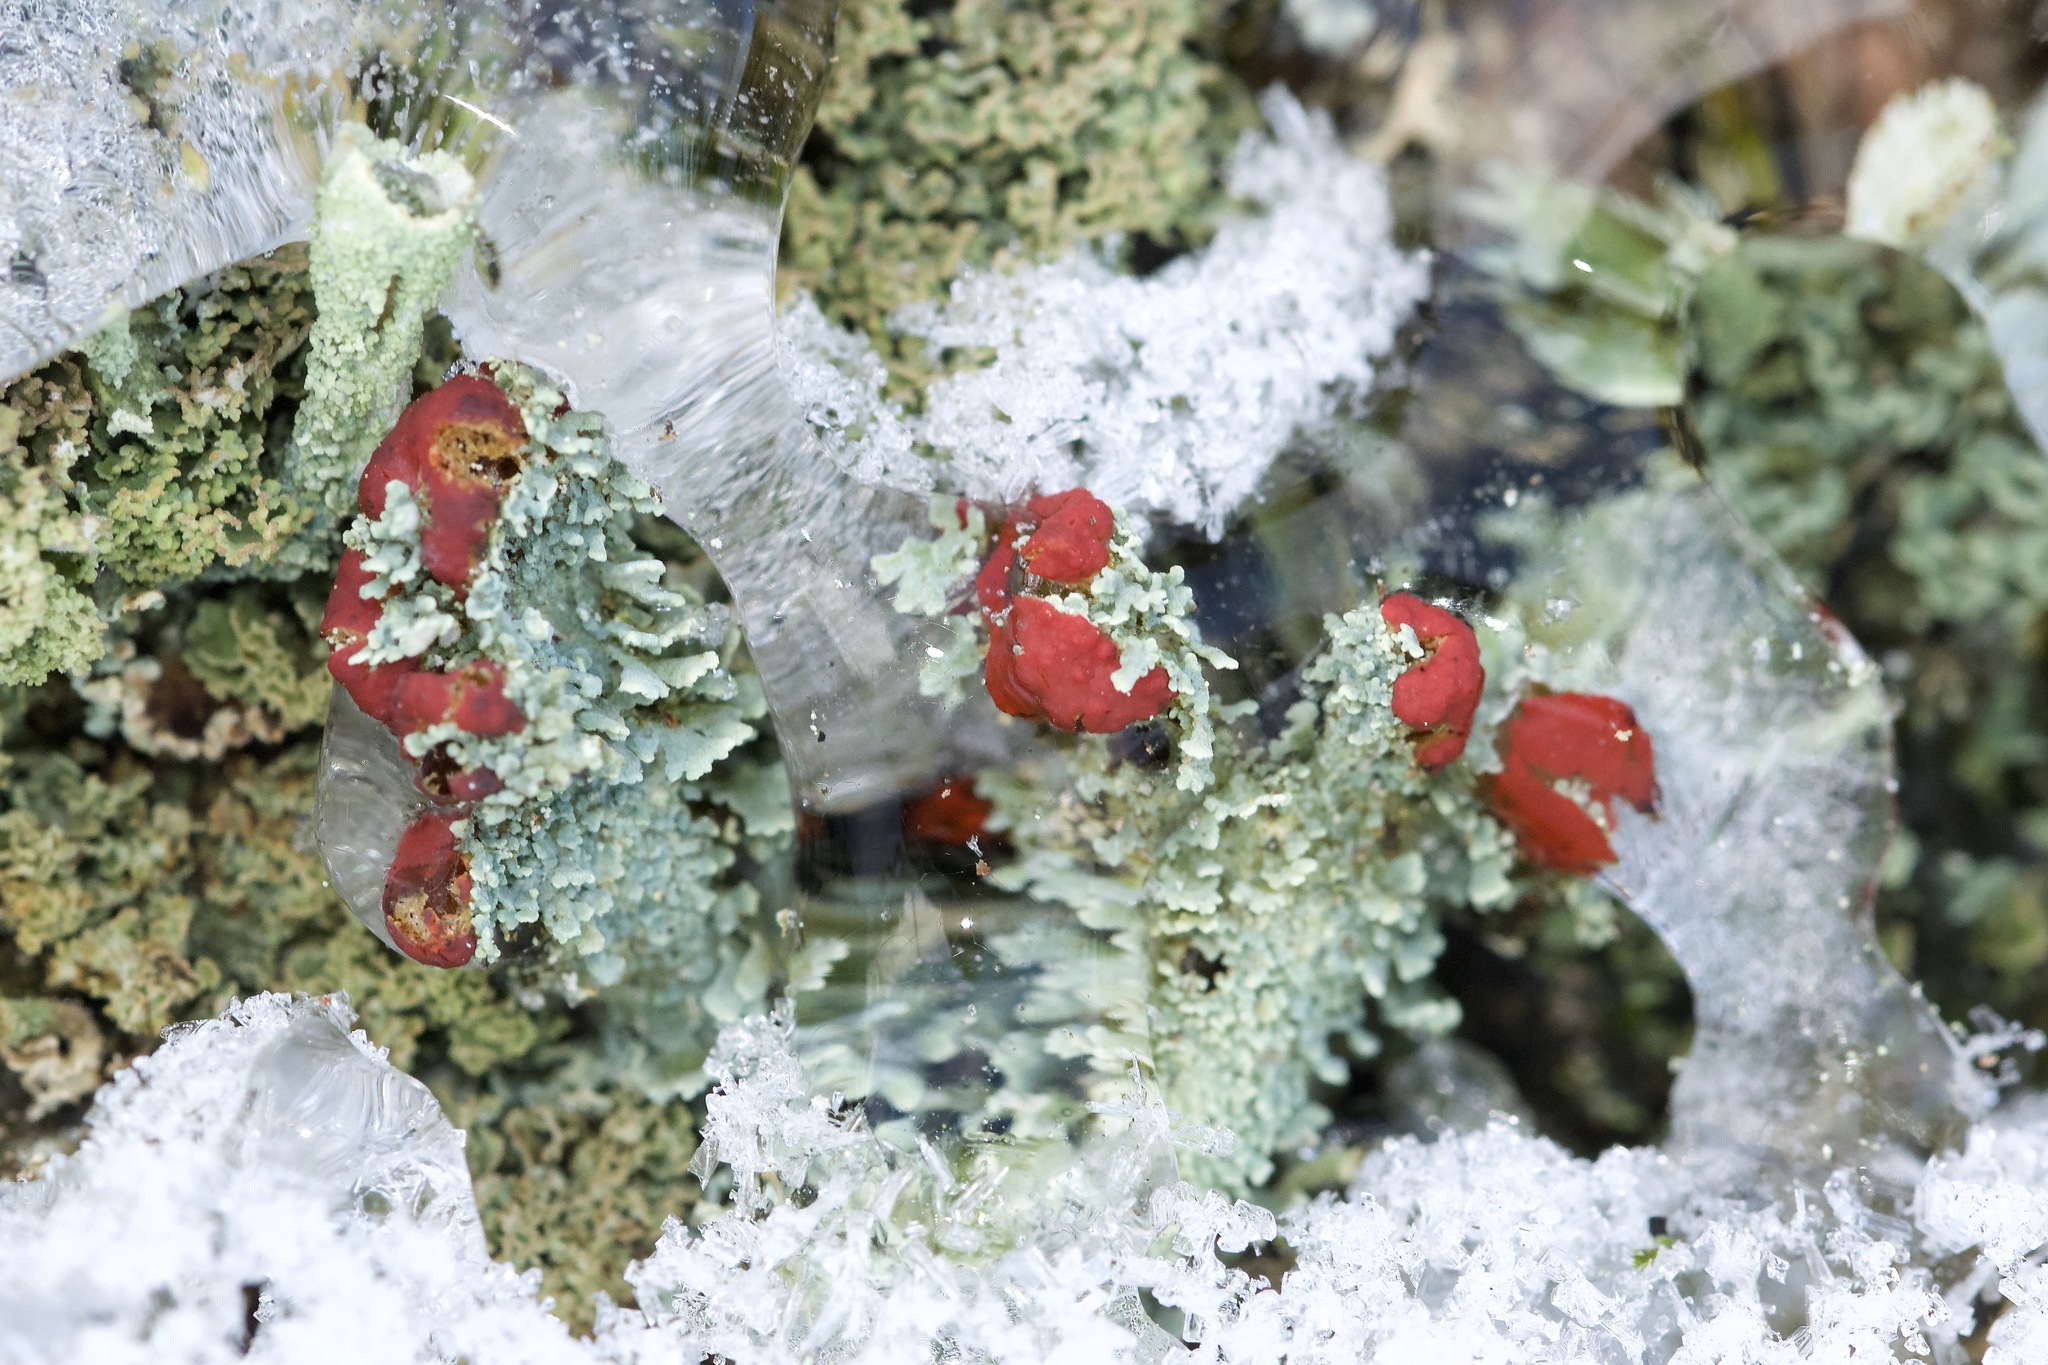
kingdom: Fungi
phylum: Ascomycota
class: Lecanoromycetes
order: Lecanorales
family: Cladoniaceae
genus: Cladonia
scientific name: Cladonia cristatella
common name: British soldier lichen
